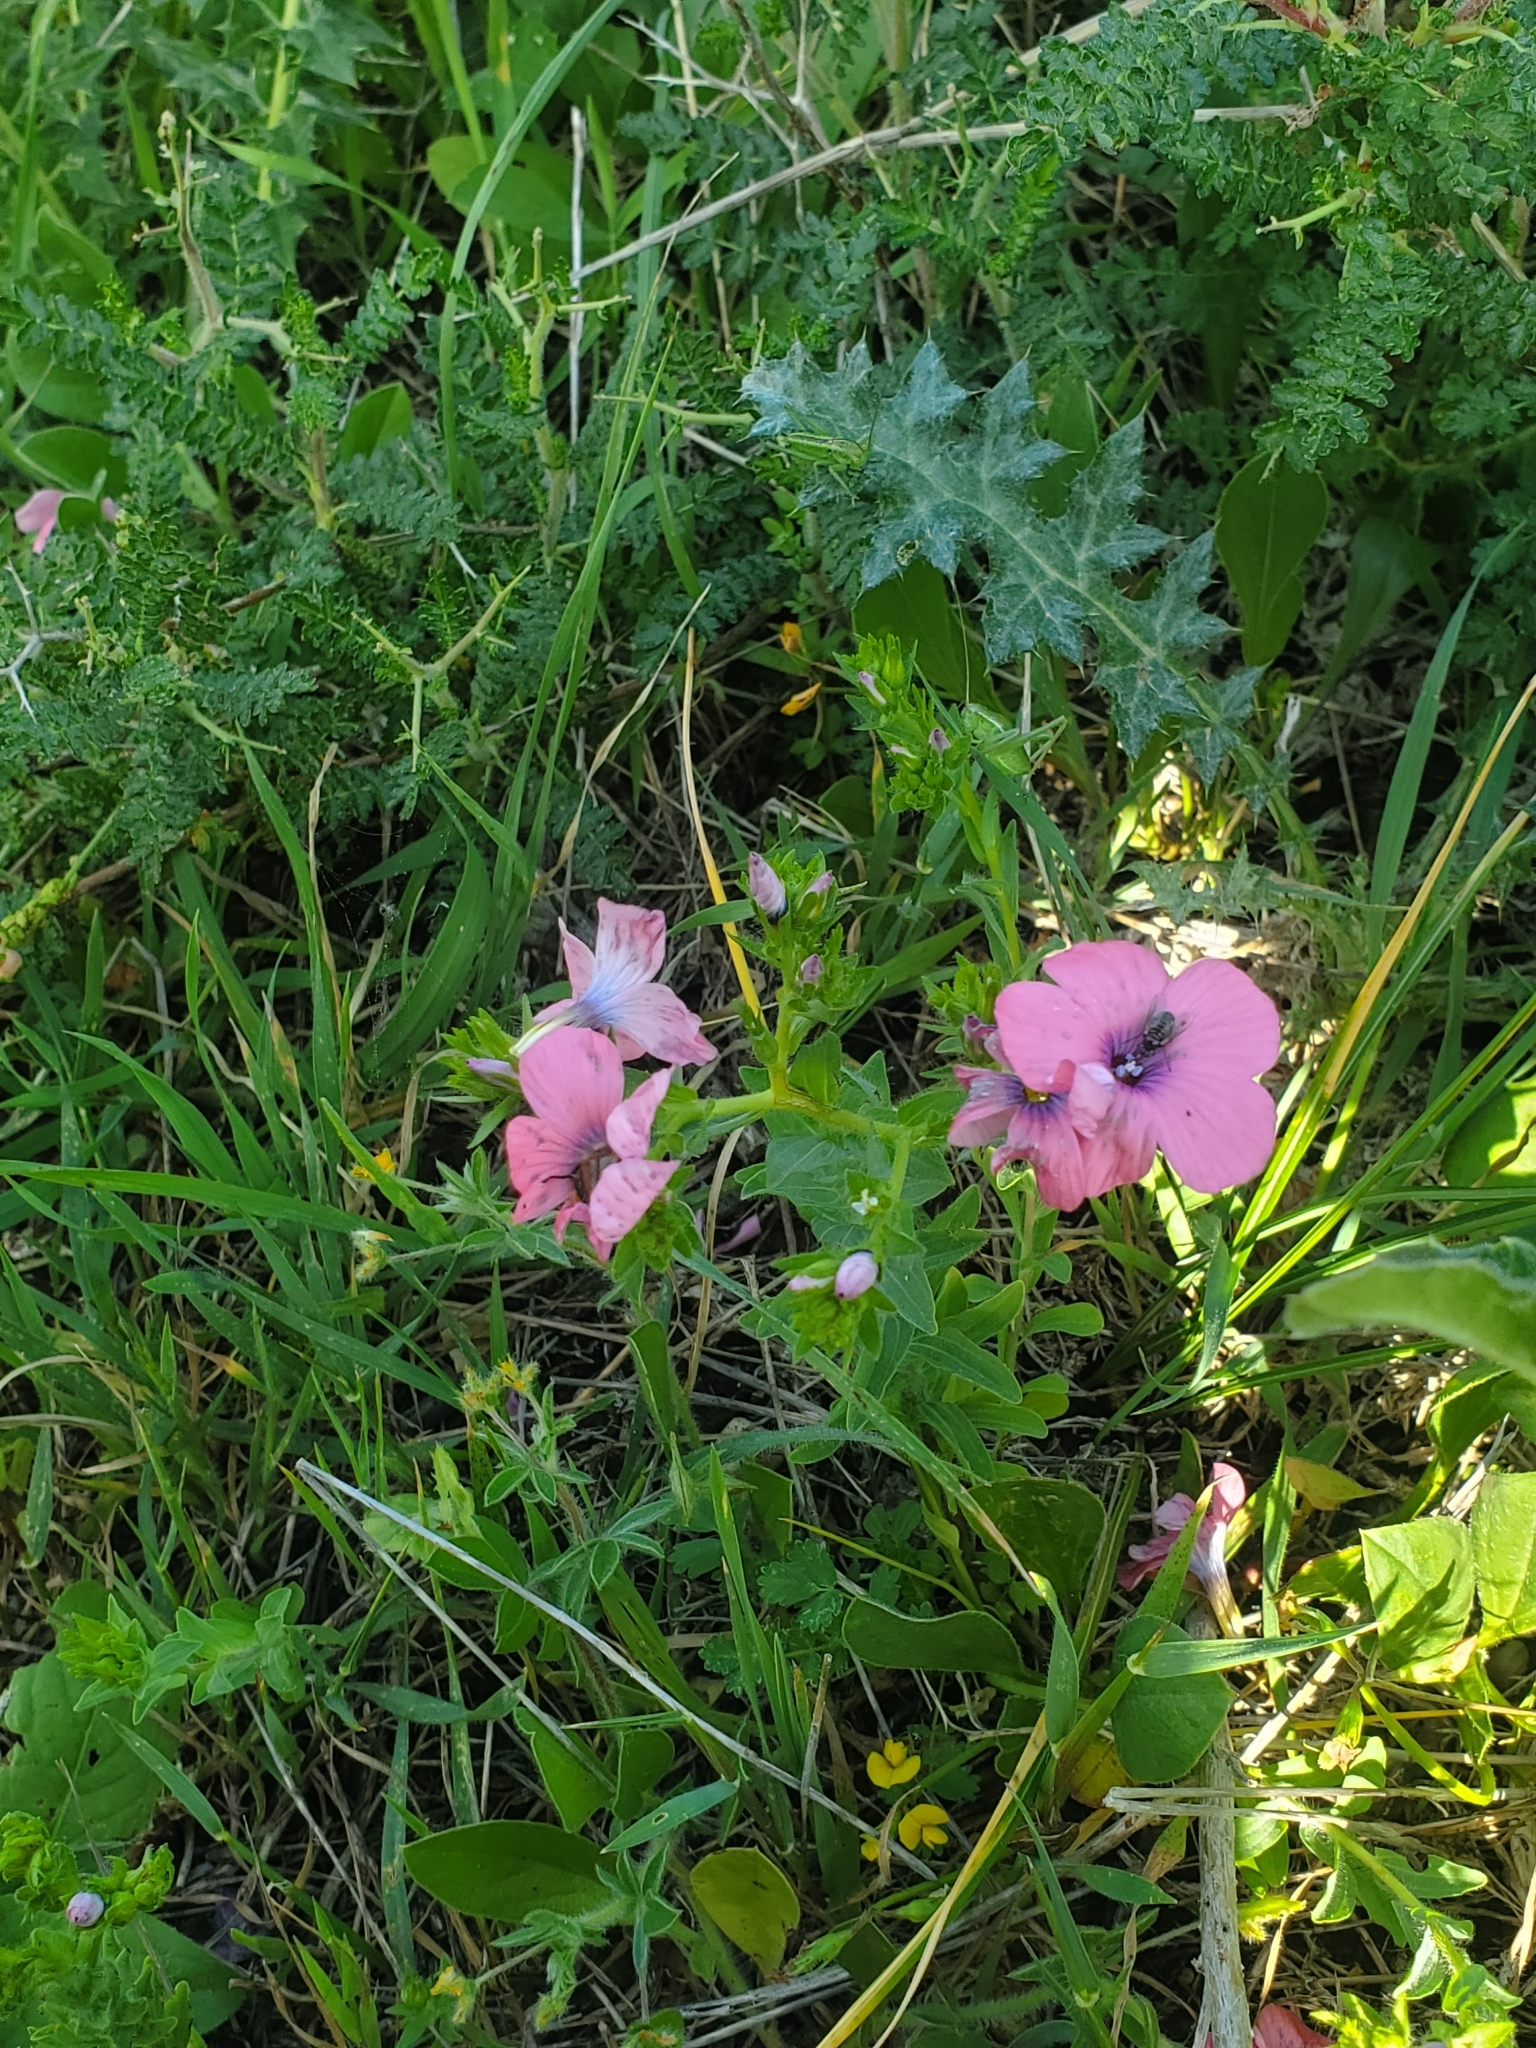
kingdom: Plantae
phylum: Tracheophyta
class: Magnoliopsida
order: Malpighiales
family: Linaceae
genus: Linum
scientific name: Linum pubescens
